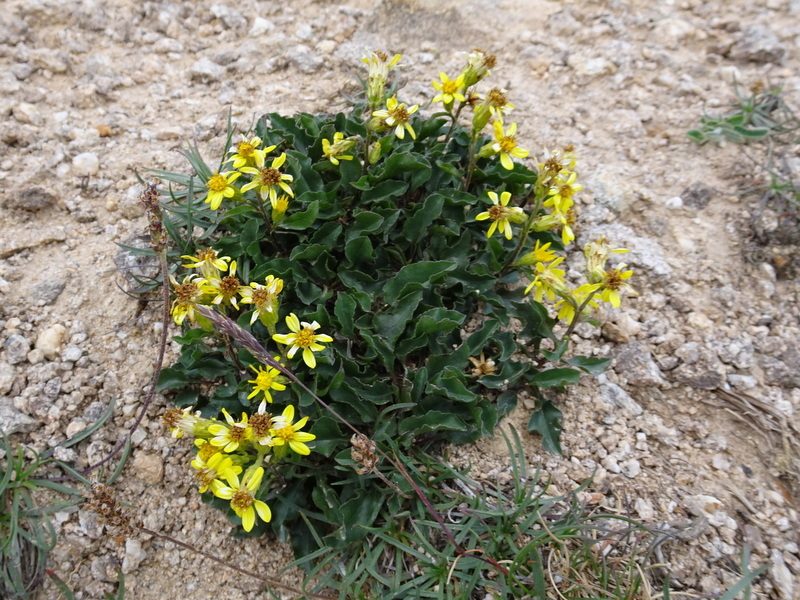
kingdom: Plantae
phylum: Tracheophyta
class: Magnoliopsida
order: Asterales
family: Asteraceae
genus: Solidago
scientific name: Solidago virgaurea
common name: Goldenrod
